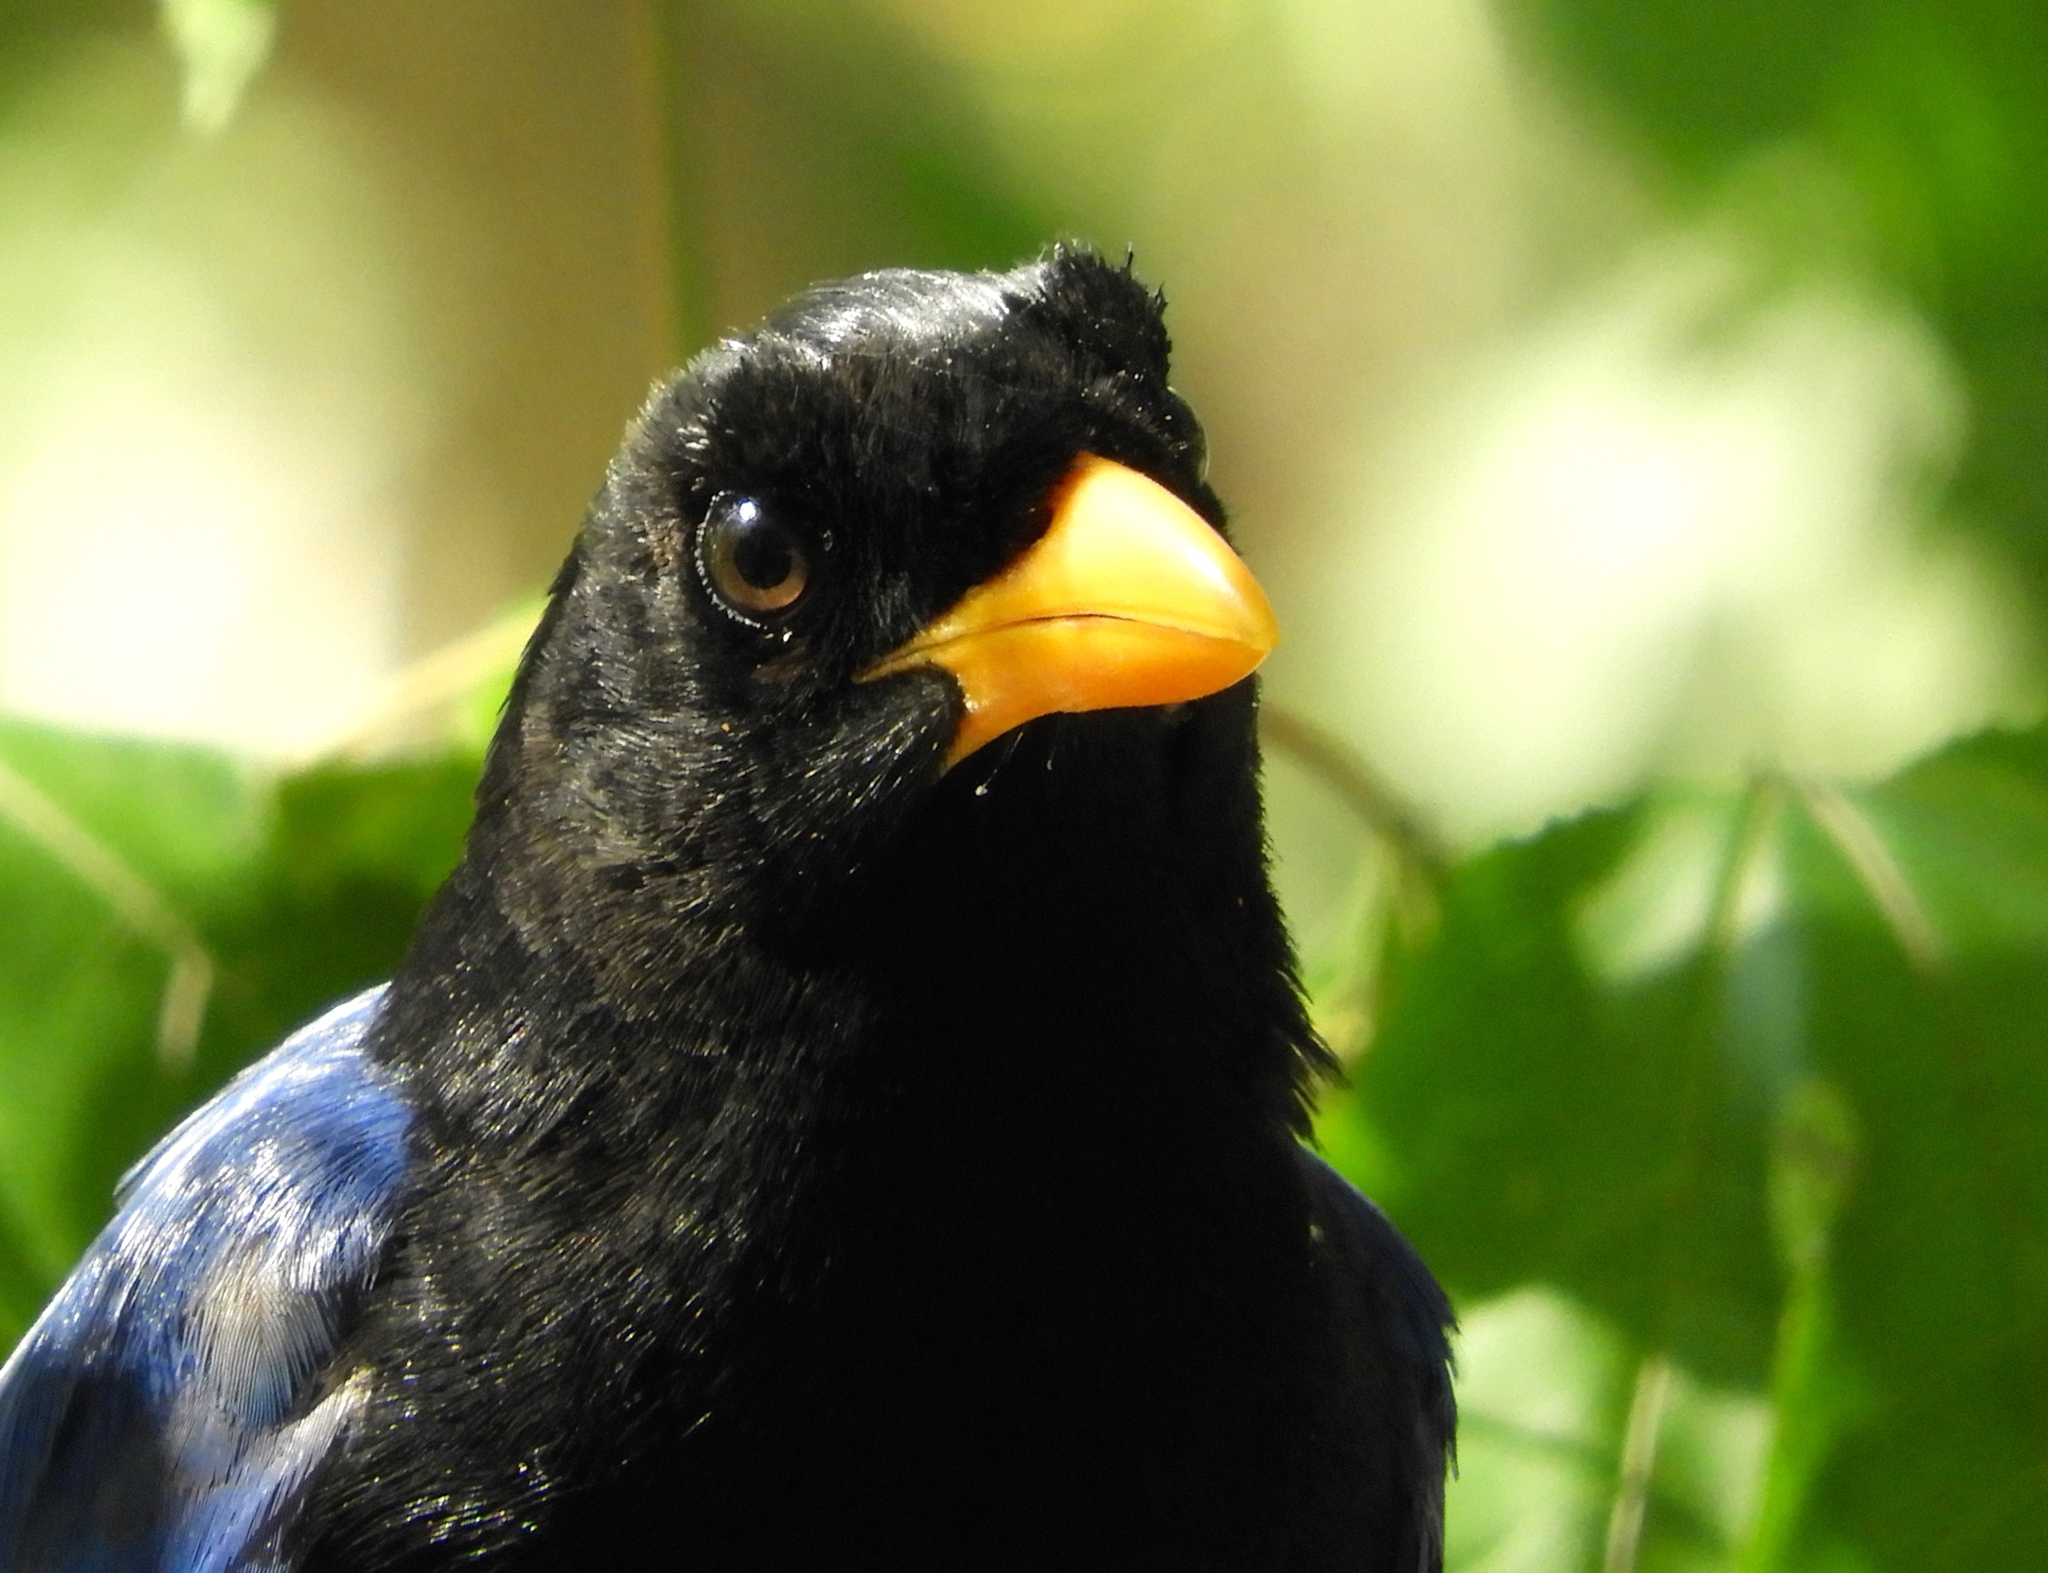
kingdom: Animalia
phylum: Chordata
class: Aves
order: Passeriformes
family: Corvidae
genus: Cyanocorax
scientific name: Cyanocorax beecheii
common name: Purplish-backed jay
